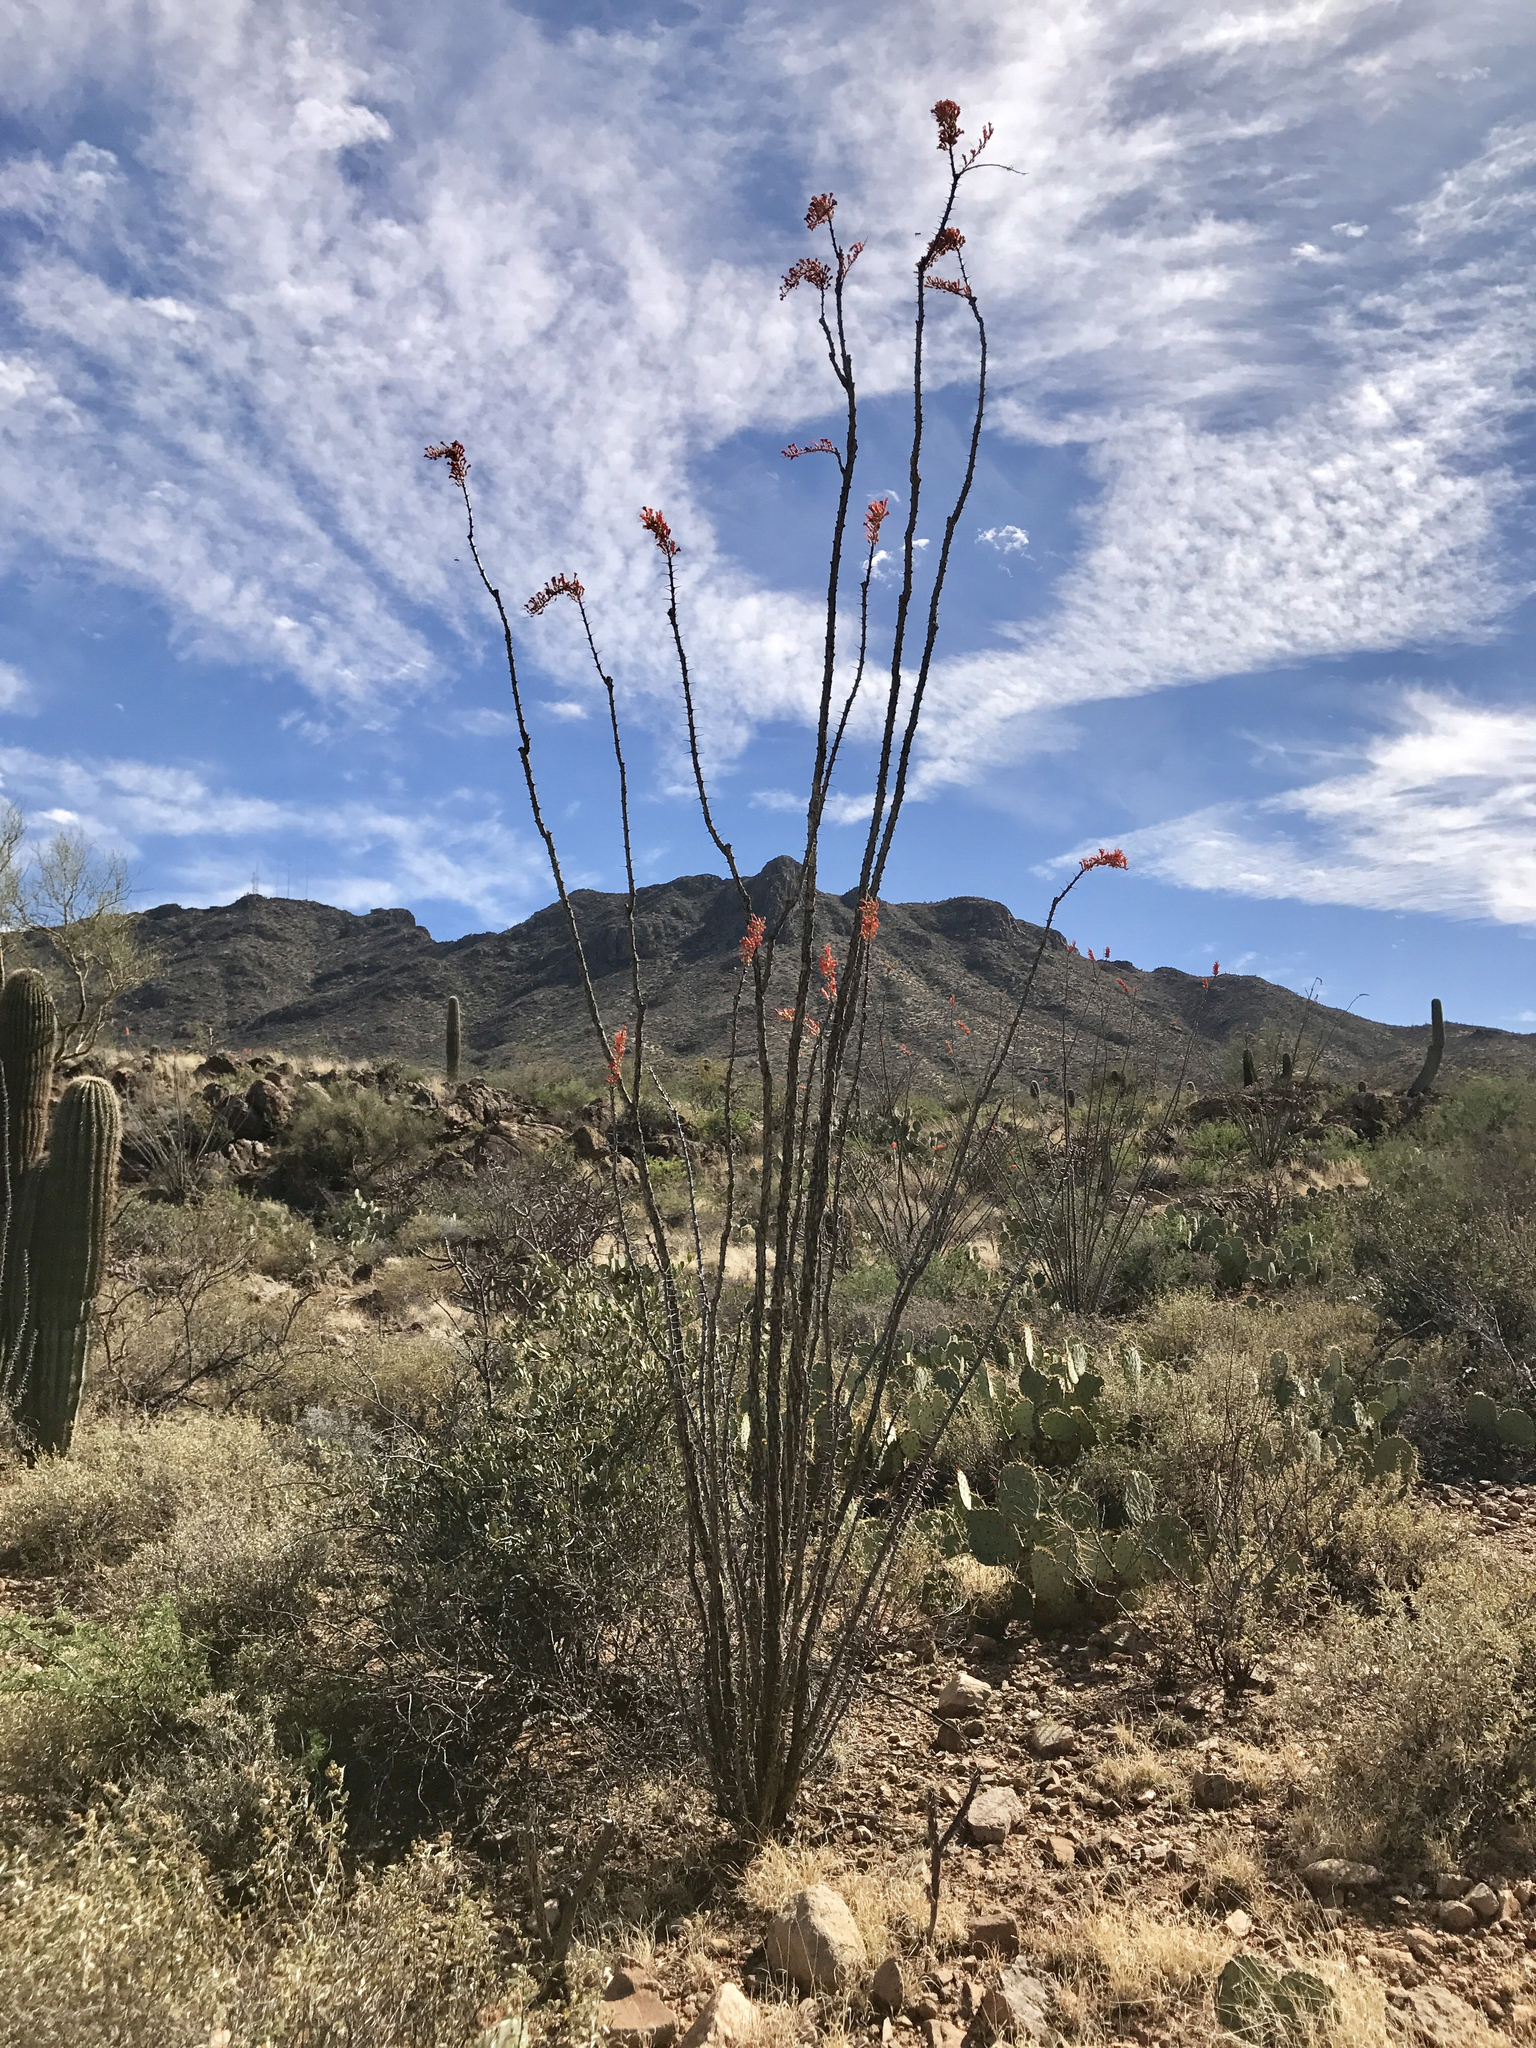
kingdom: Plantae
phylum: Tracheophyta
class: Magnoliopsida
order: Ericales
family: Fouquieriaceae
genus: Fouquieria
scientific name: Fouquieria splendens
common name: Vine-cactus
